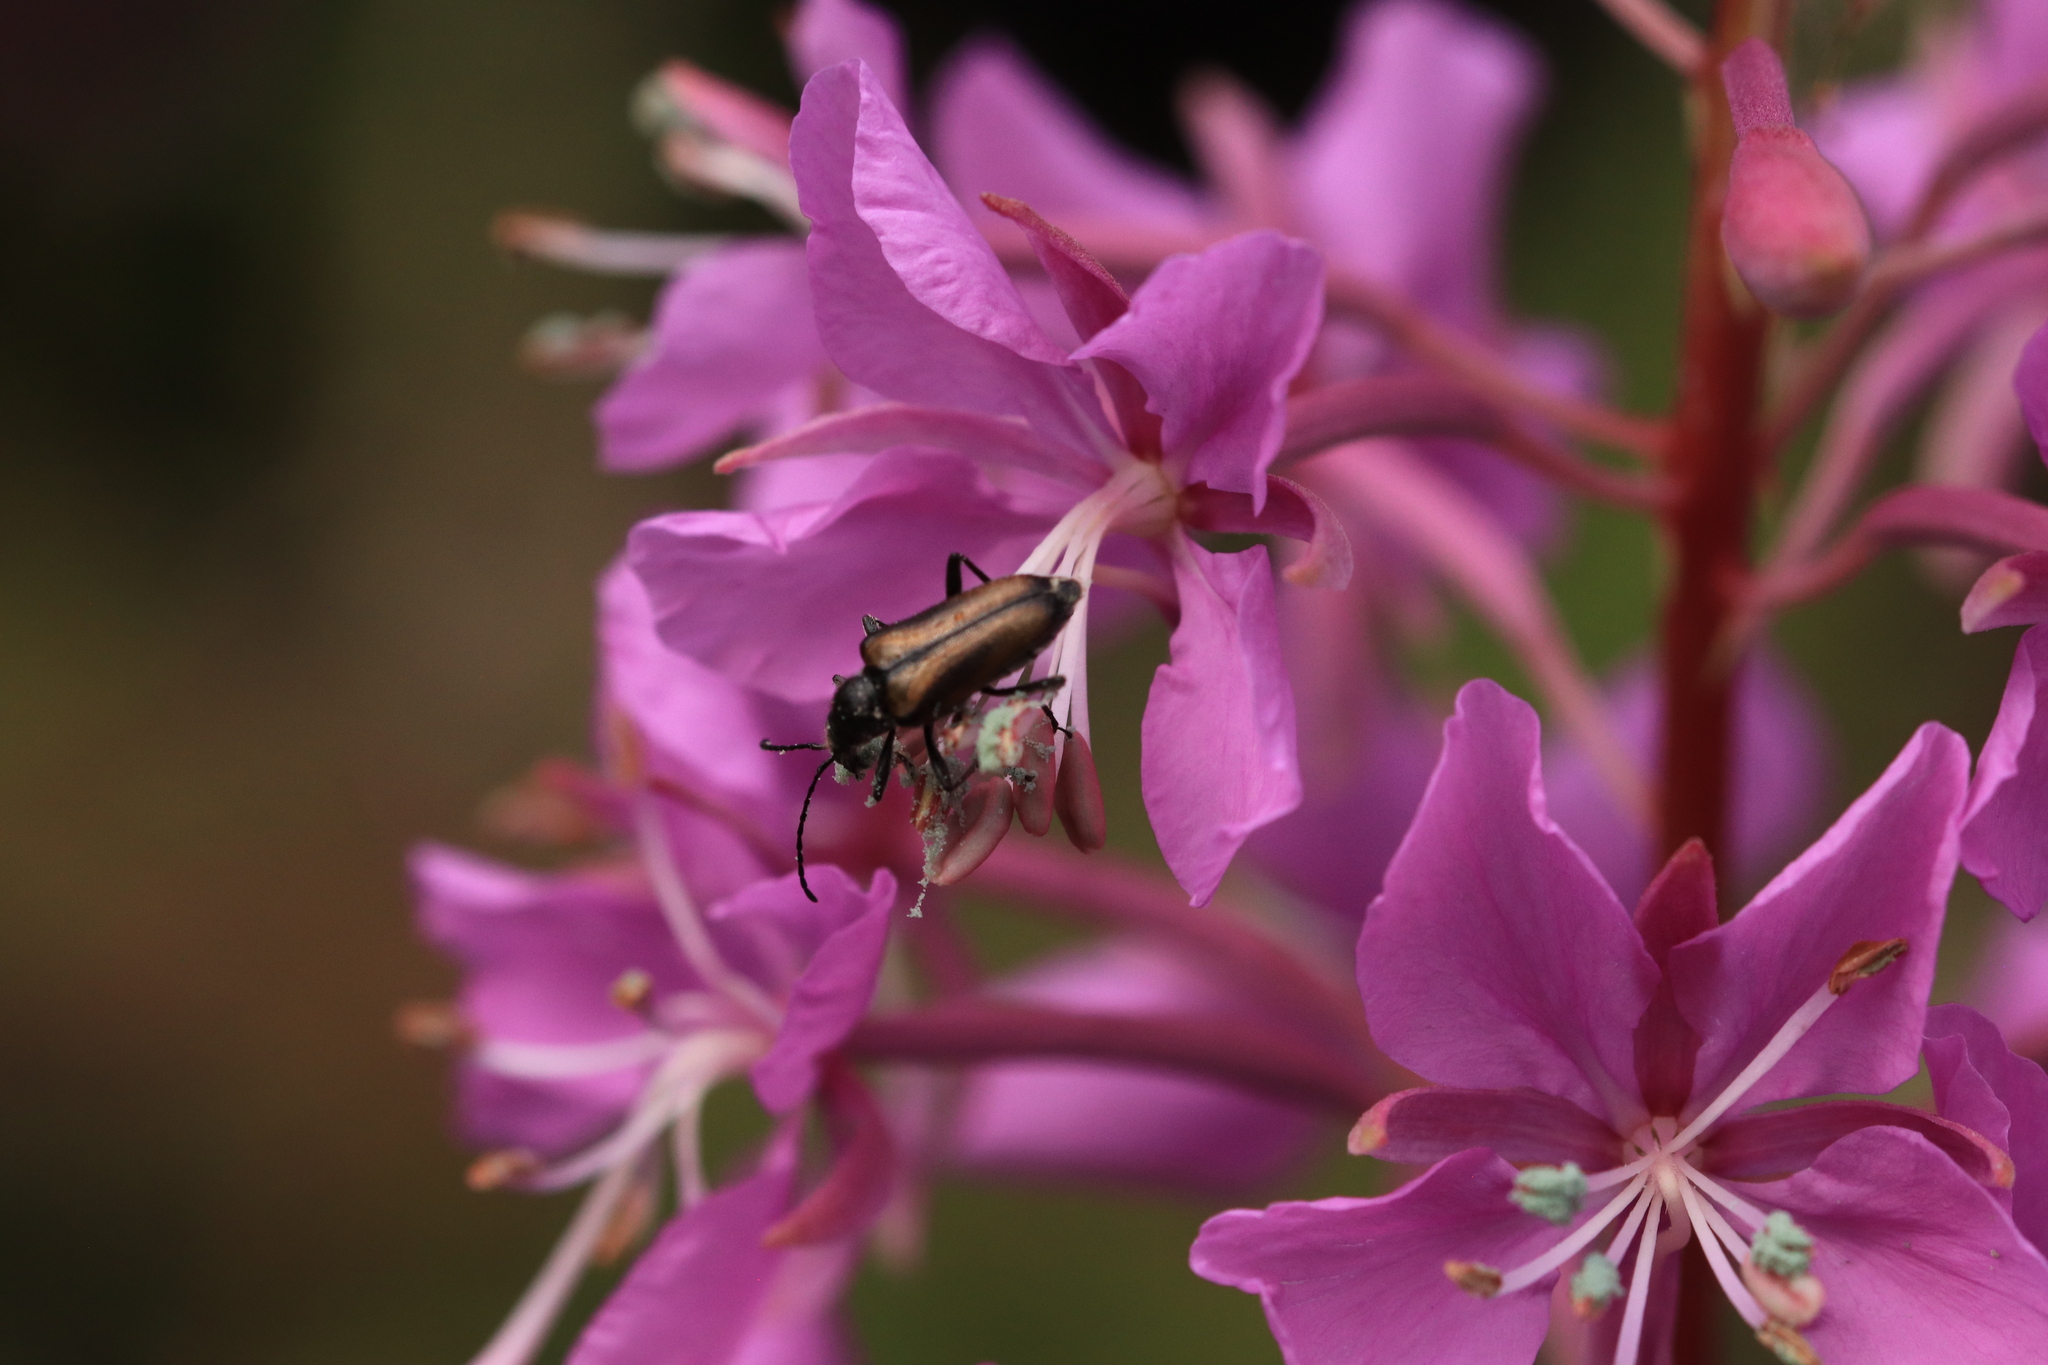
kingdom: Animalia
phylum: Arthropoda
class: Insecta
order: Coleoptera
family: Cerambycidae
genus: Gnathacmaeops
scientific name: Gnathacmaeops pratensis
